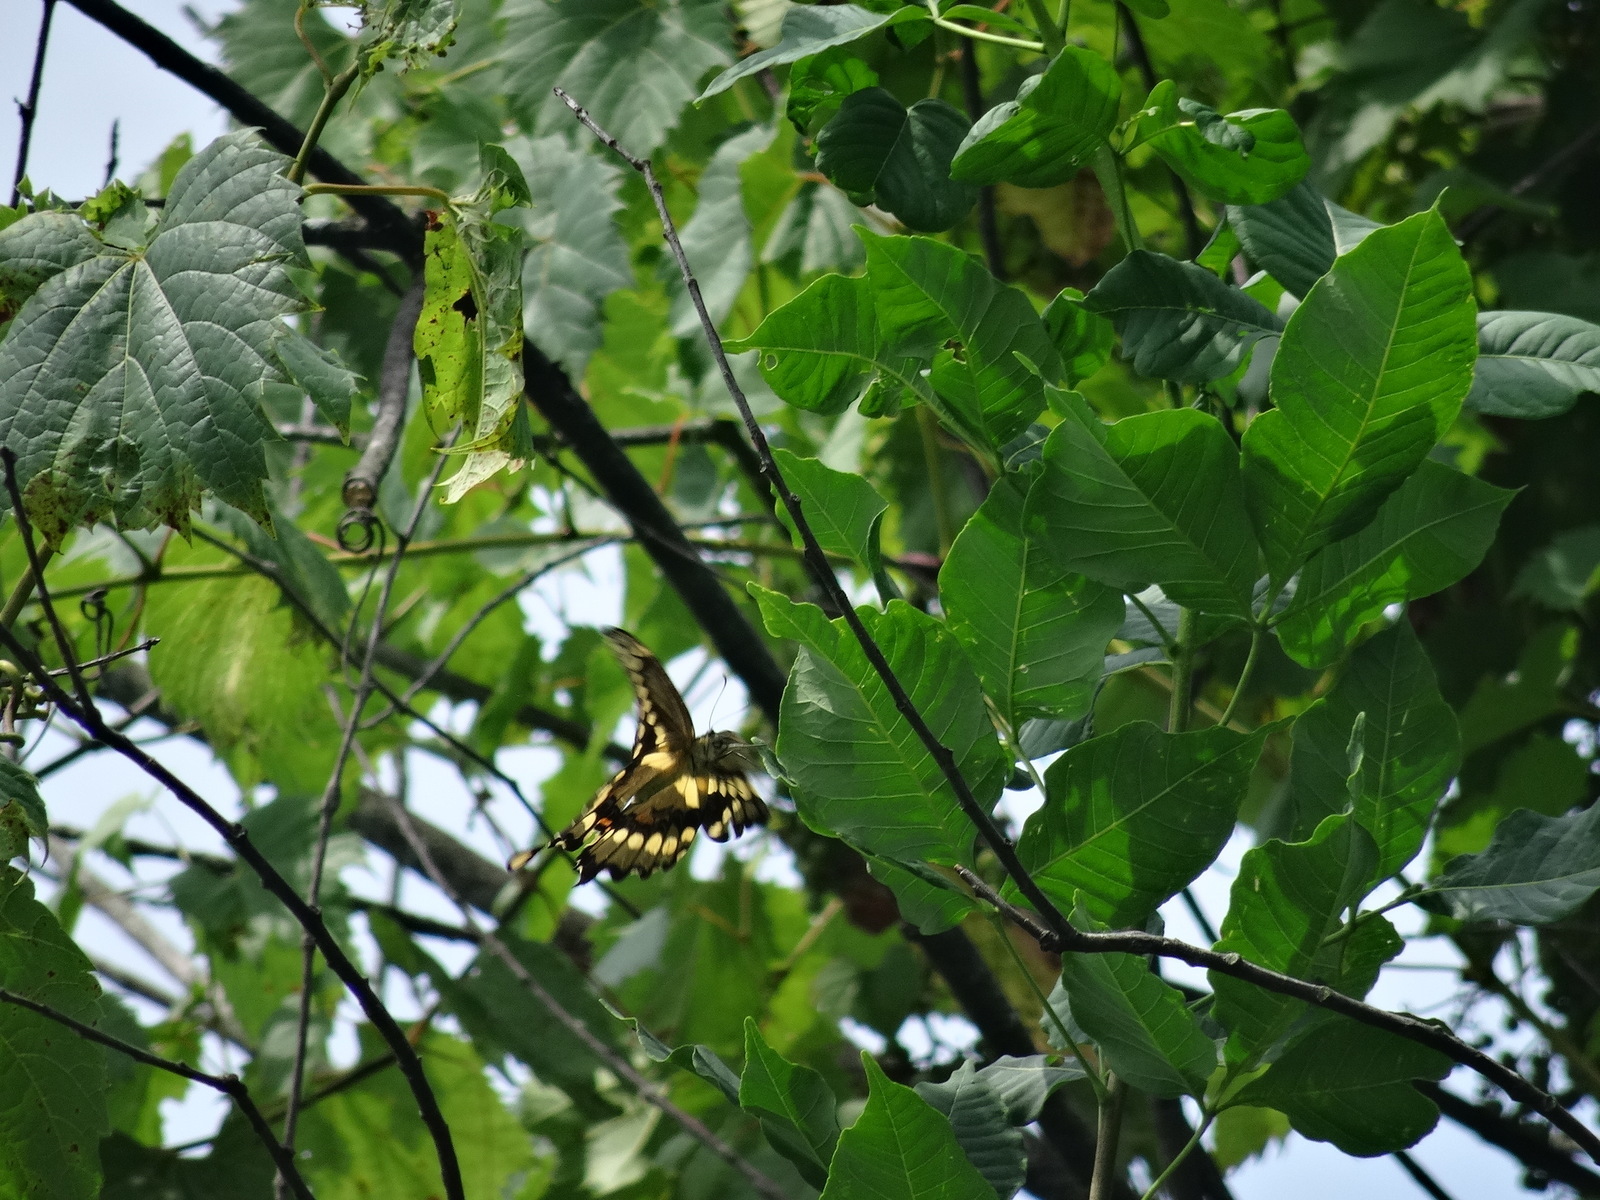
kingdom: Animalia
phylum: Arthropoda
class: Insecta
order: Lepidoptera
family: Papilionidae
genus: Papilio
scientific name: Papilio cresphontes
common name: Giant swallowtail
